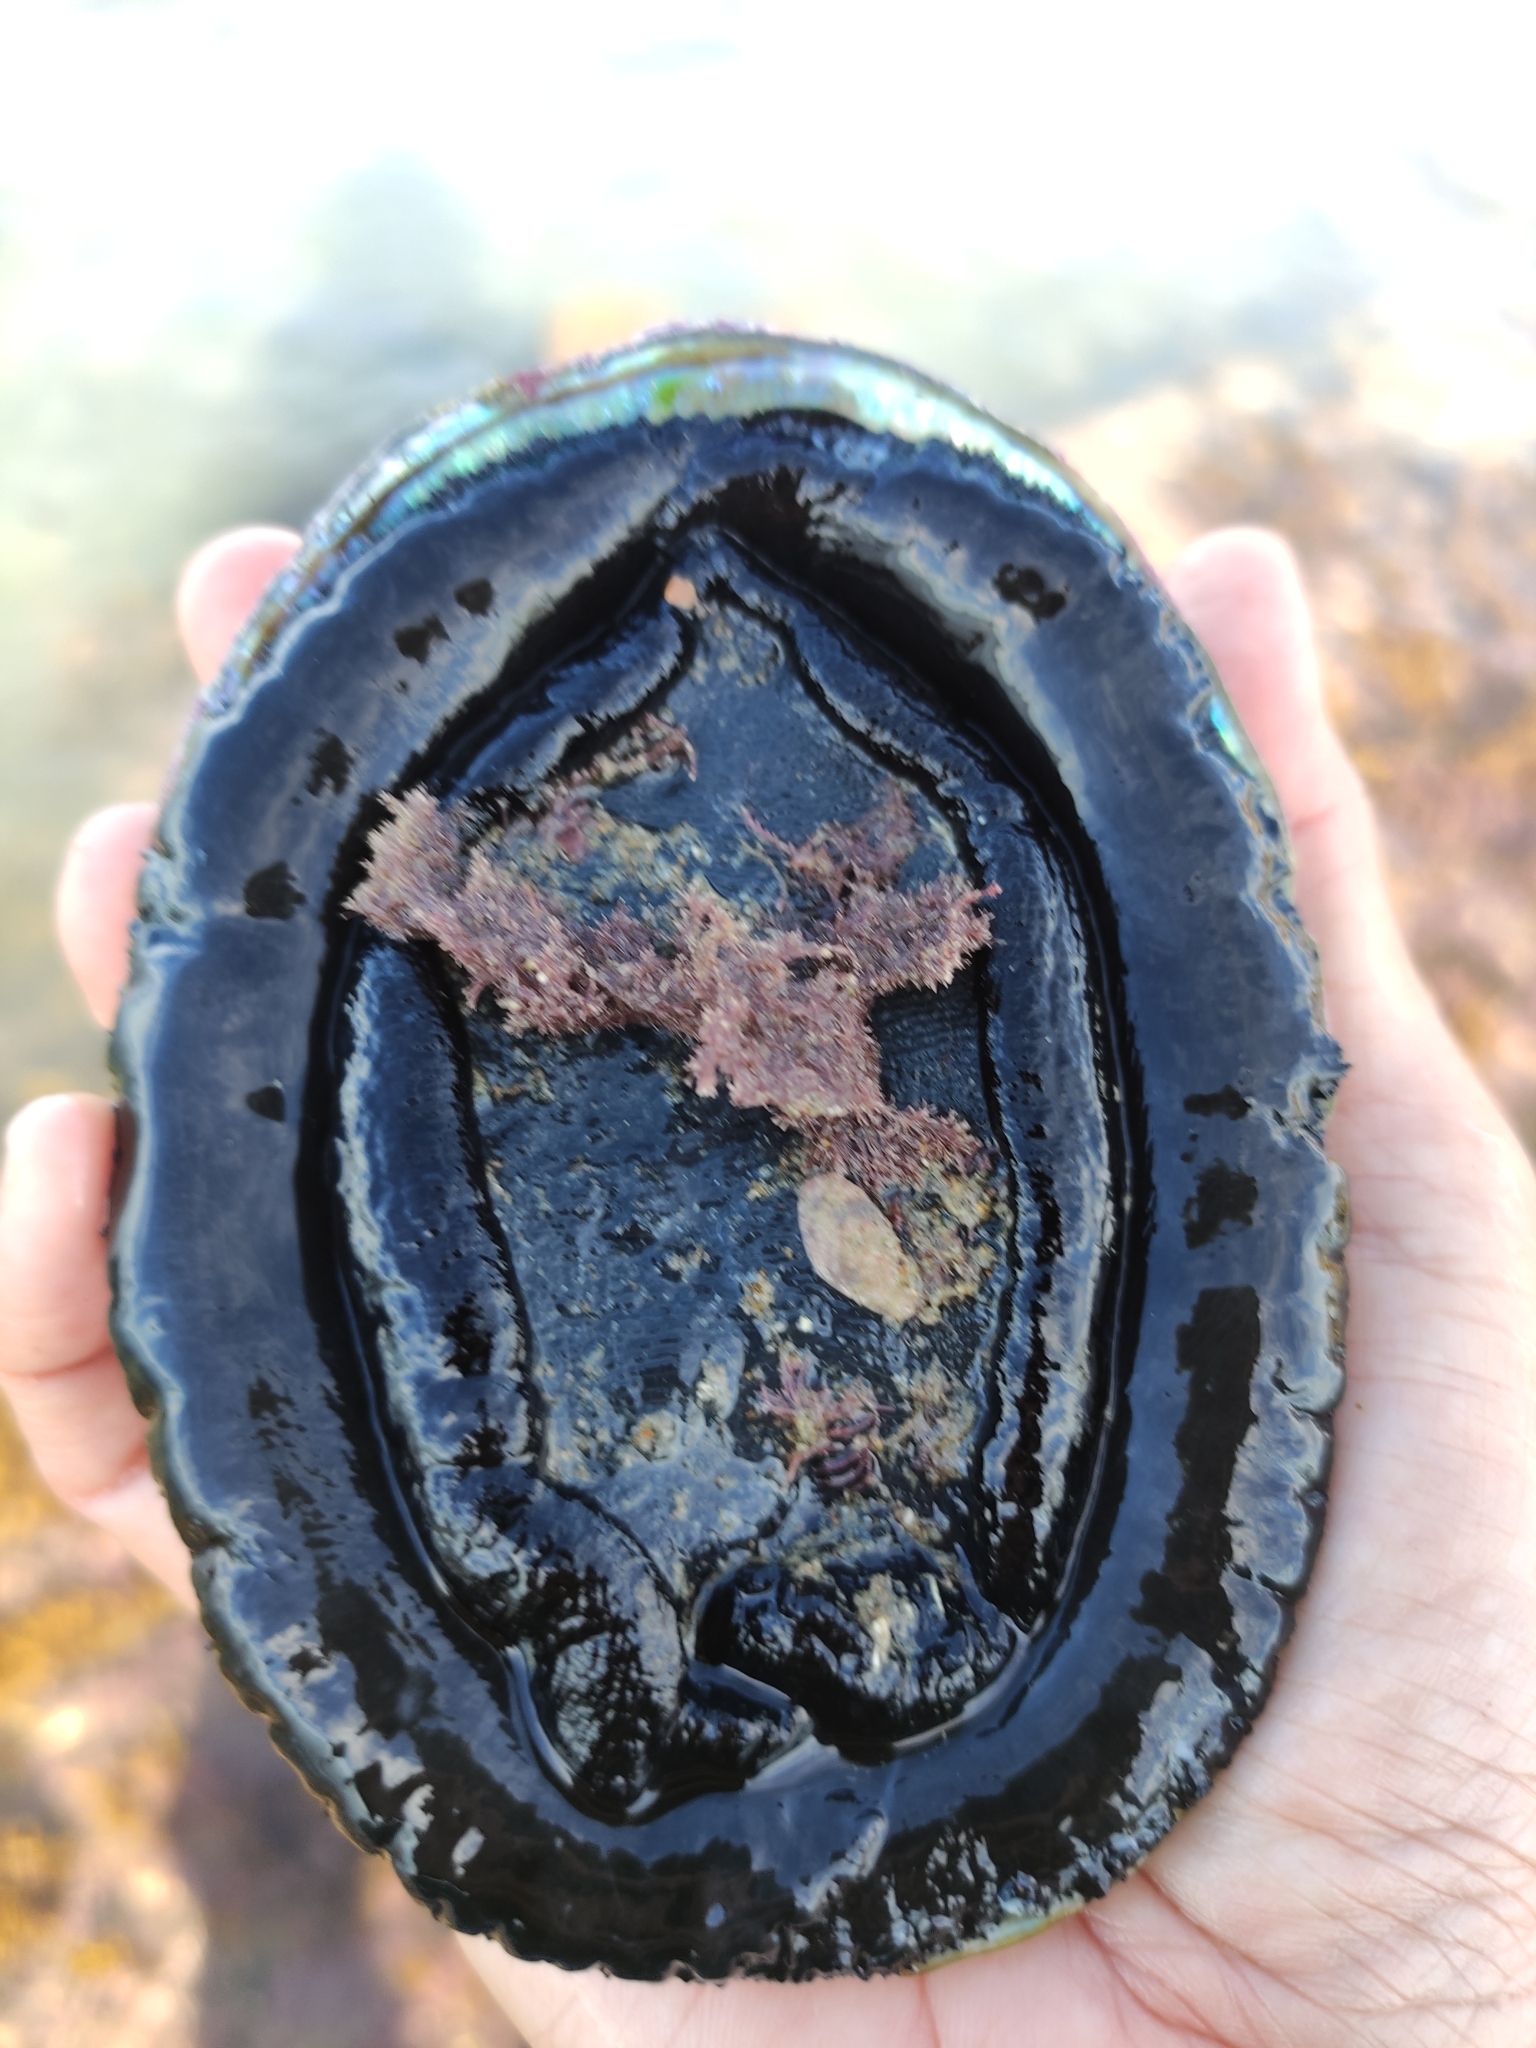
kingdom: Animalia
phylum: Mollusca
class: Gastropoda
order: Lepetellida
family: Haliotidae
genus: Haliotis
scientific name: Haliotis iris
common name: Abalone
